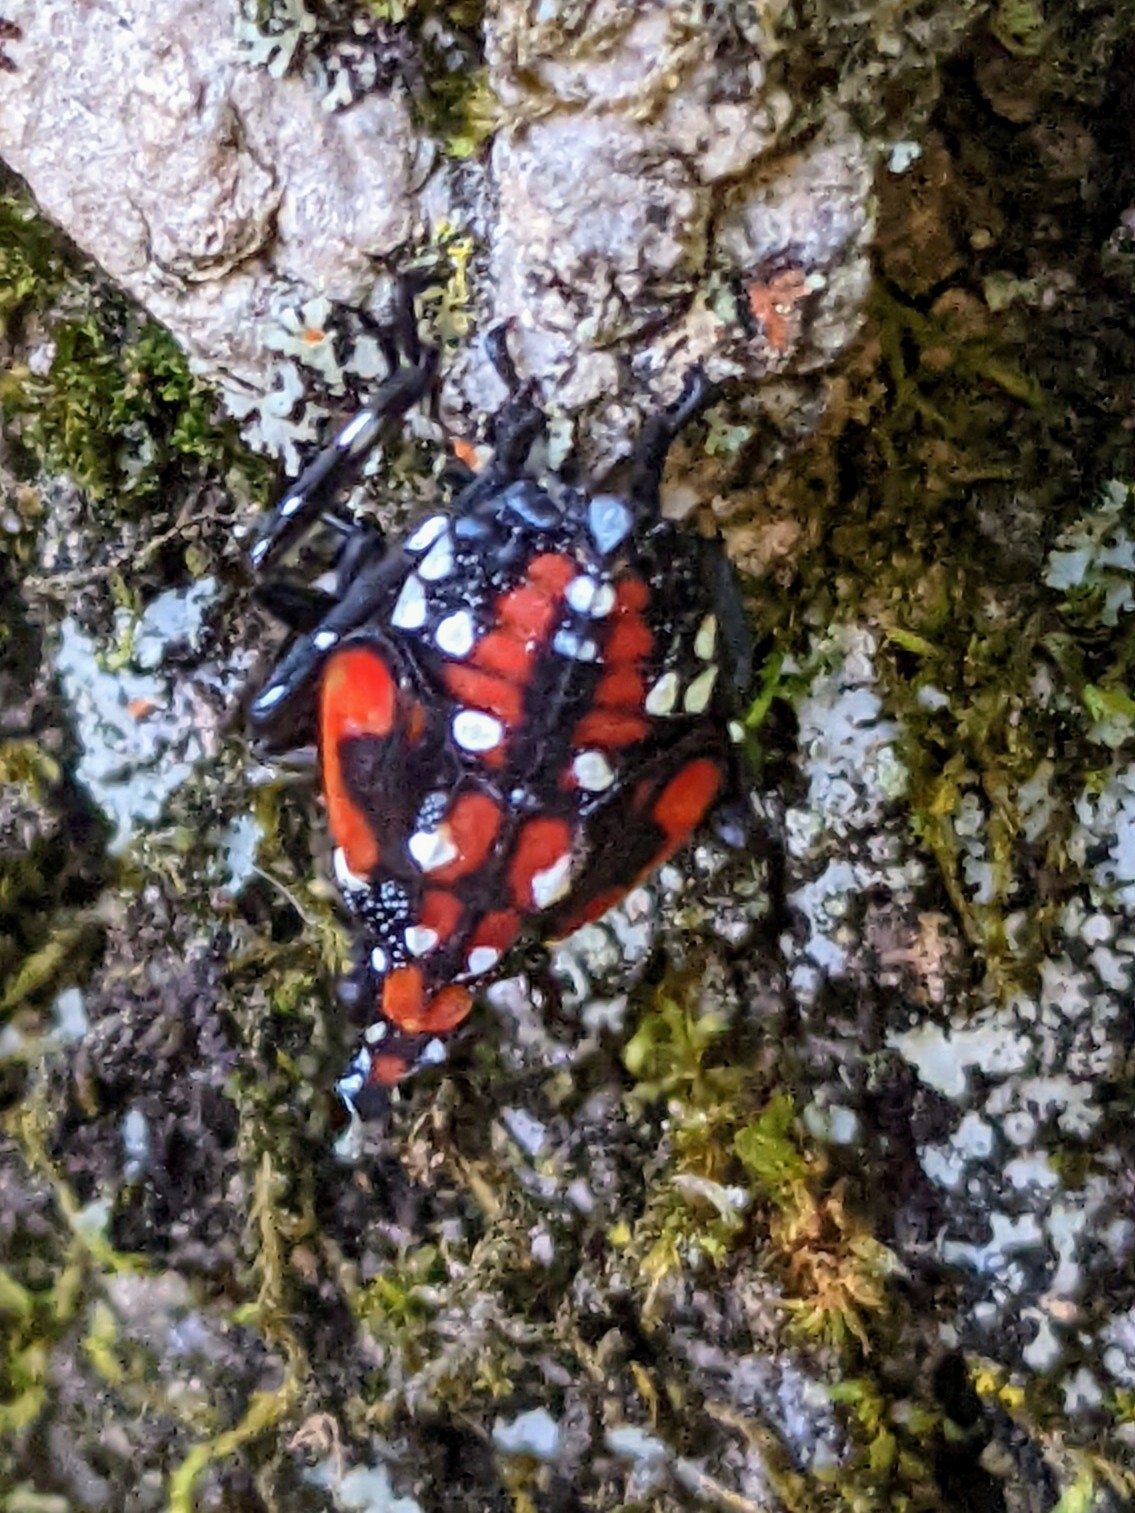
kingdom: Animalia
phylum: Arthropoda
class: Insecta
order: Hemiptera
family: Fulgoridae
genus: Lycorma
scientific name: Lycorma delicatula
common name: Spotted lanternfly
